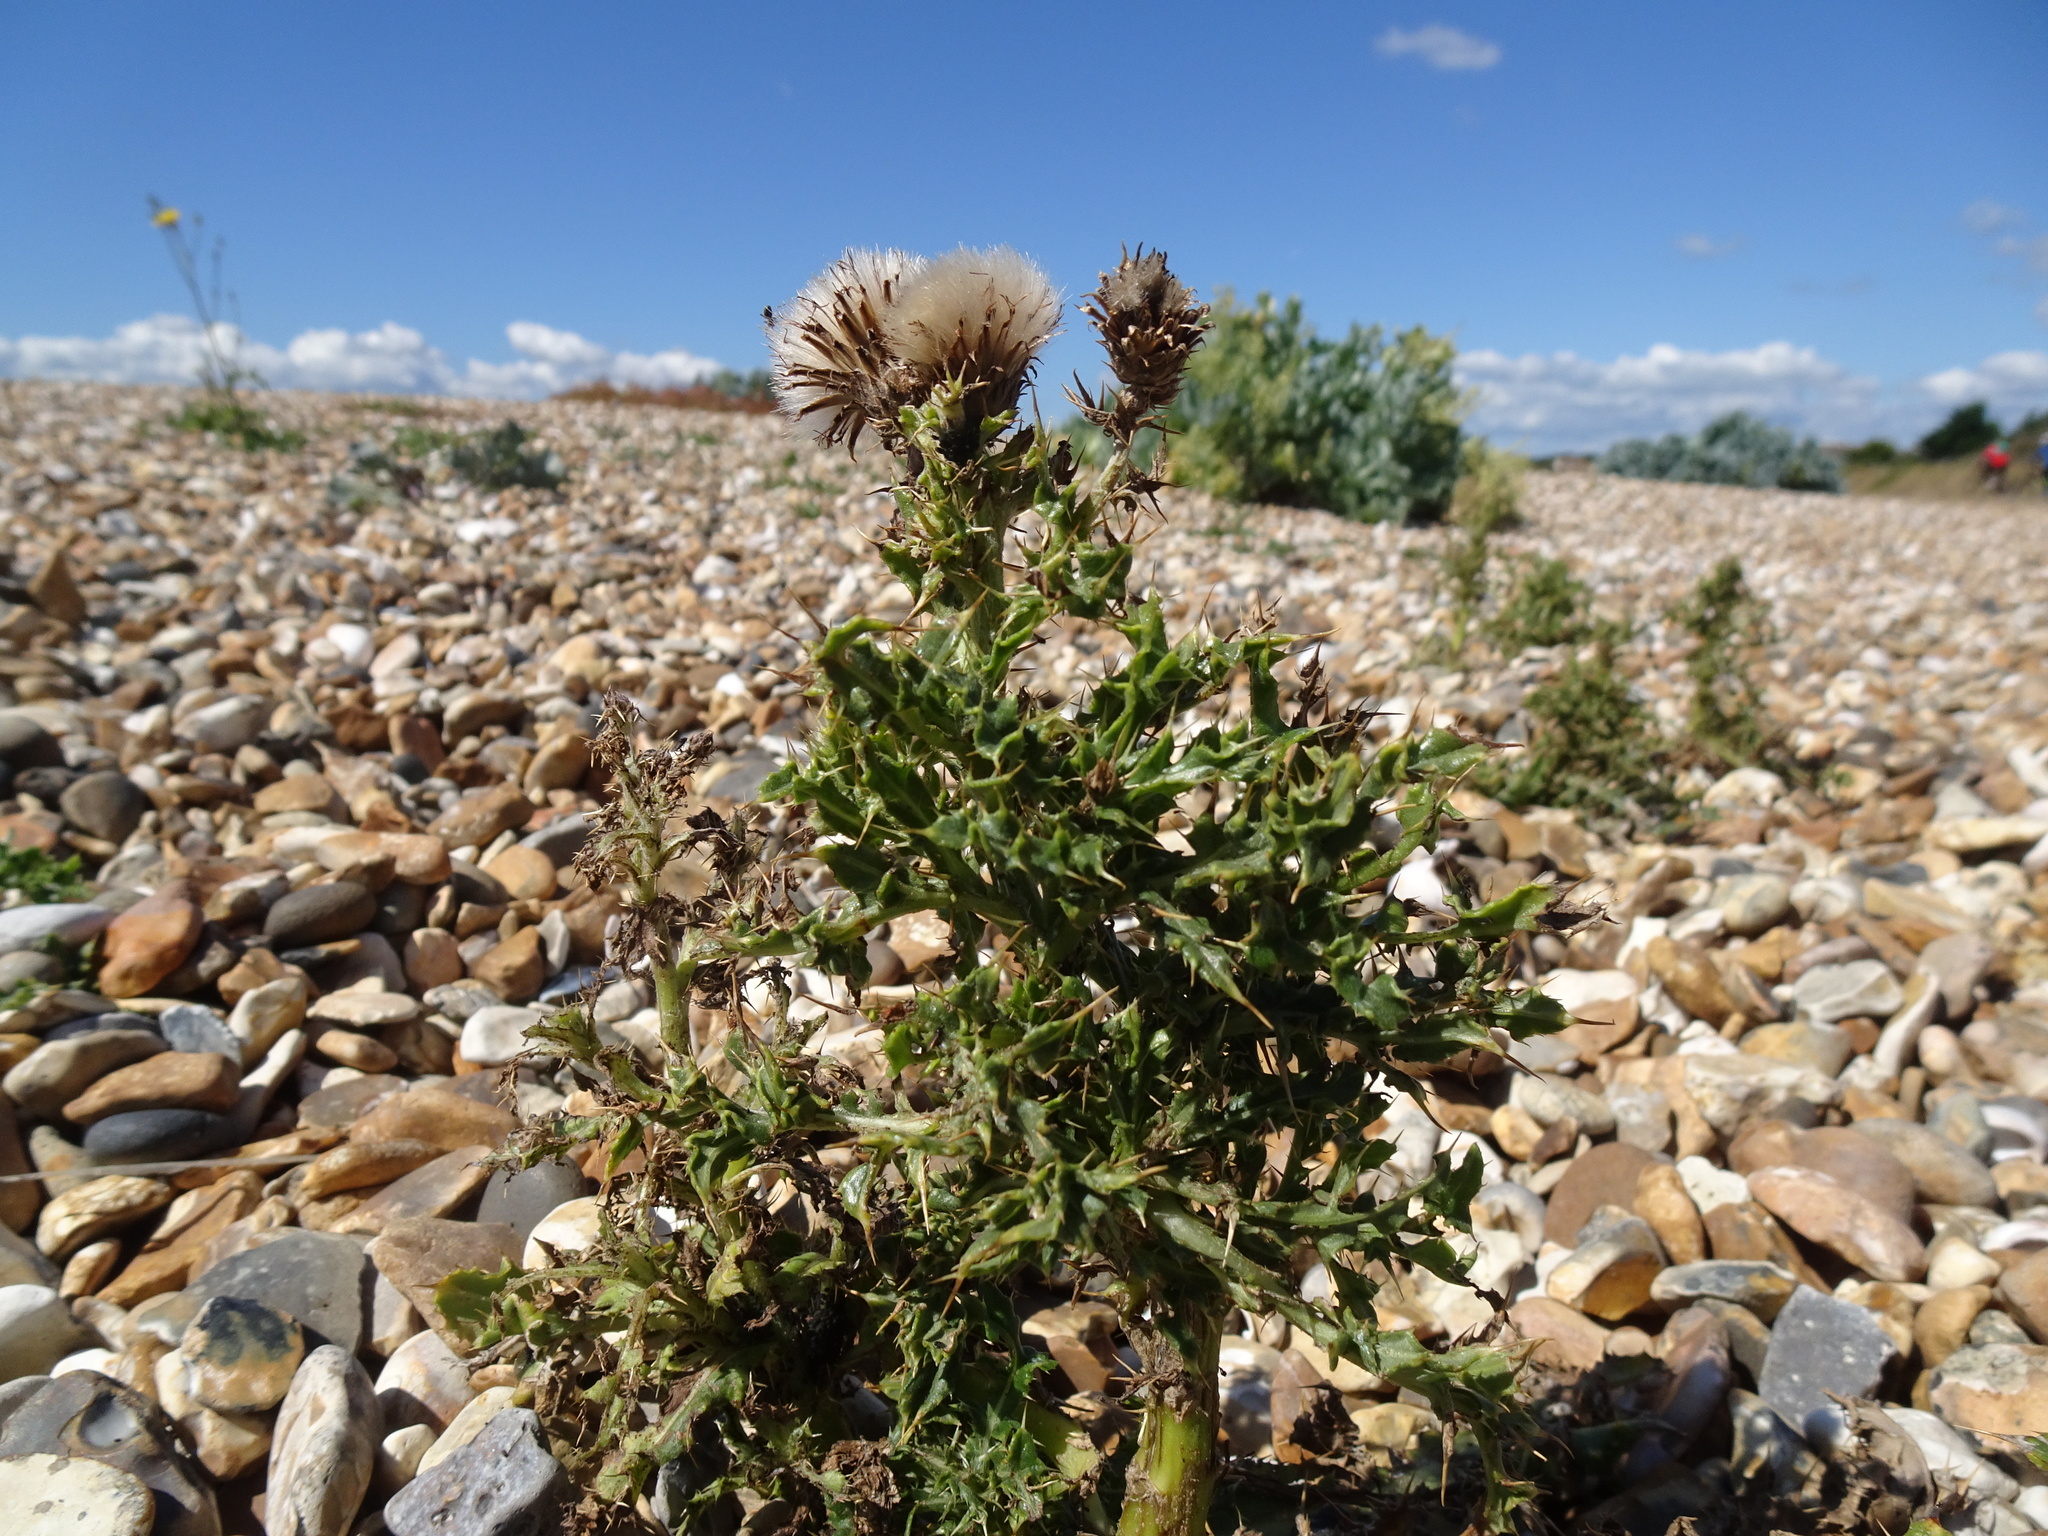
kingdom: Plantae
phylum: Tracheophyta
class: Magnoliopsida
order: Asterales
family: Asteraceae
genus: Cirsium
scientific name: Cirsium arvense
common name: Creeping thistle
